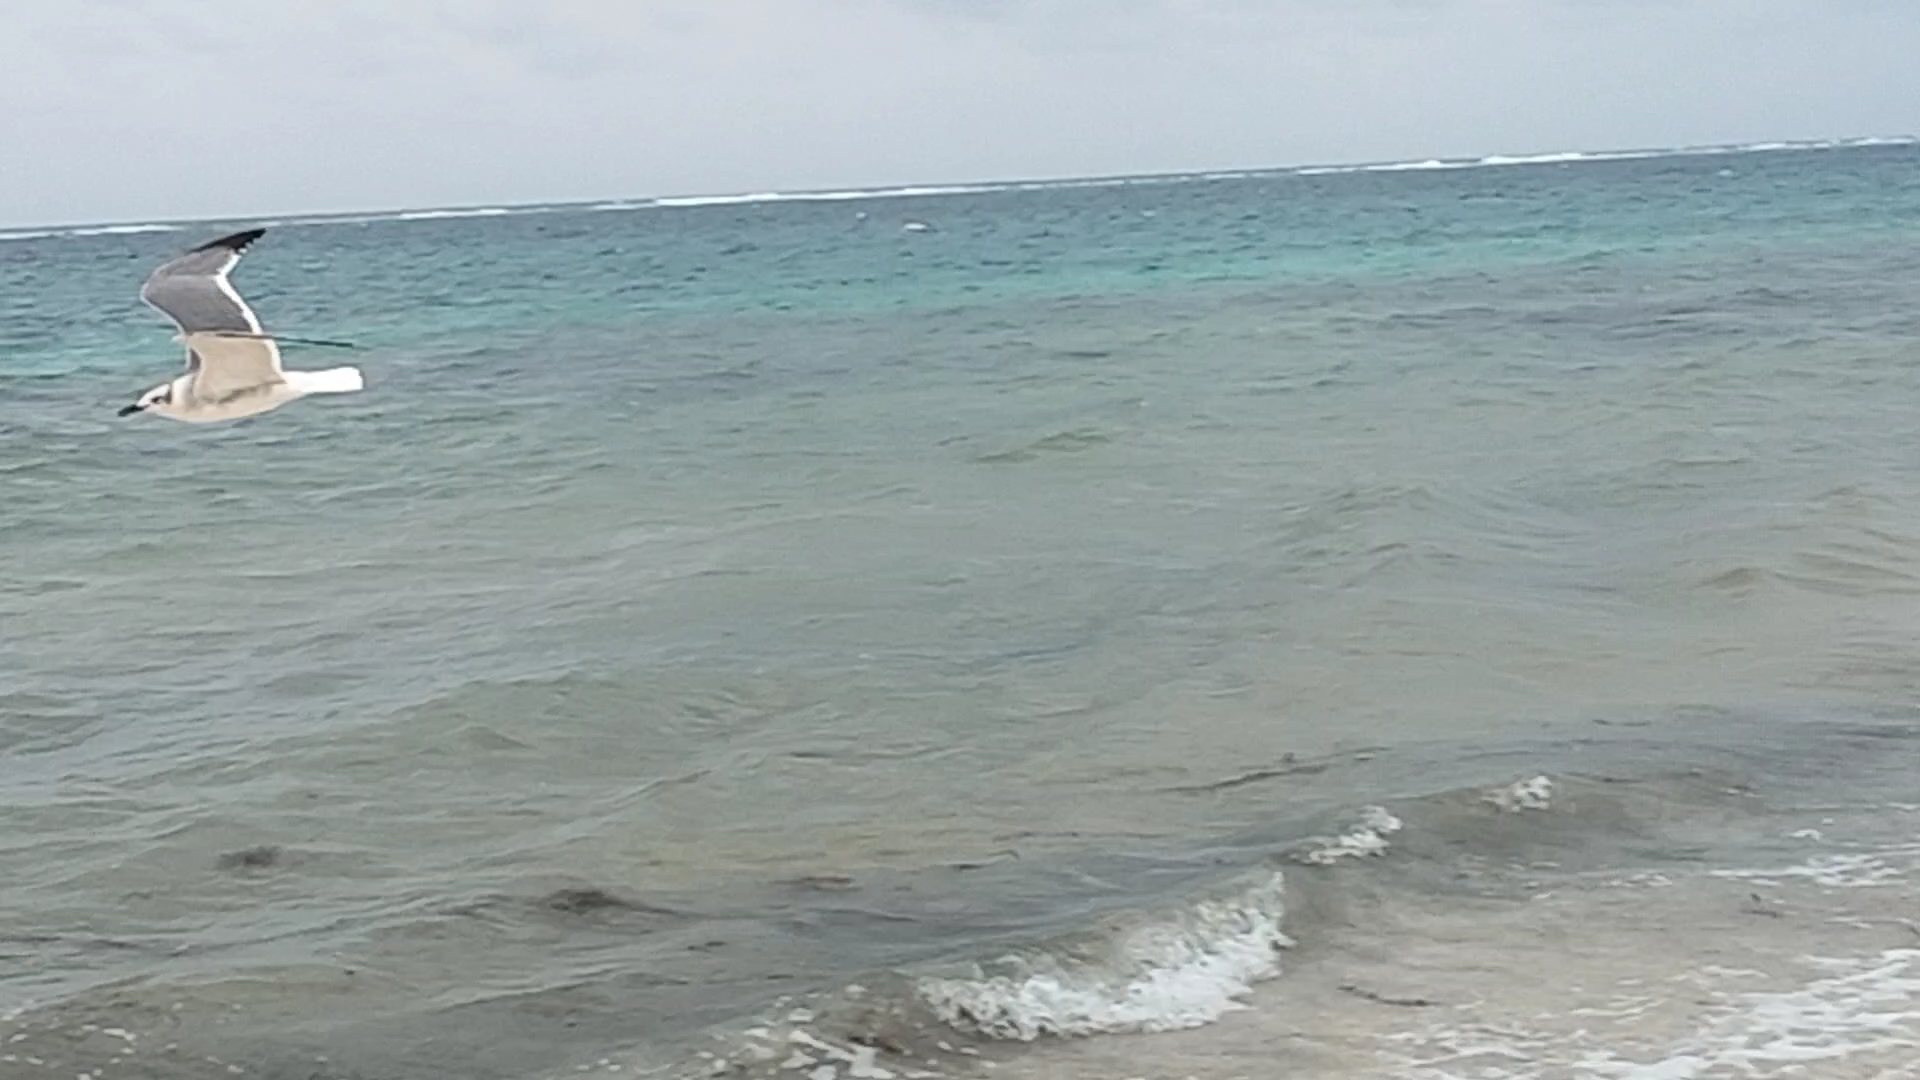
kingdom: Animalia
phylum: Chordata
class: Aves
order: Charadriiformes
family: Laridae
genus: Leucophaeus
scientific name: Leucophaeus atricilla
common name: Laughing gull
